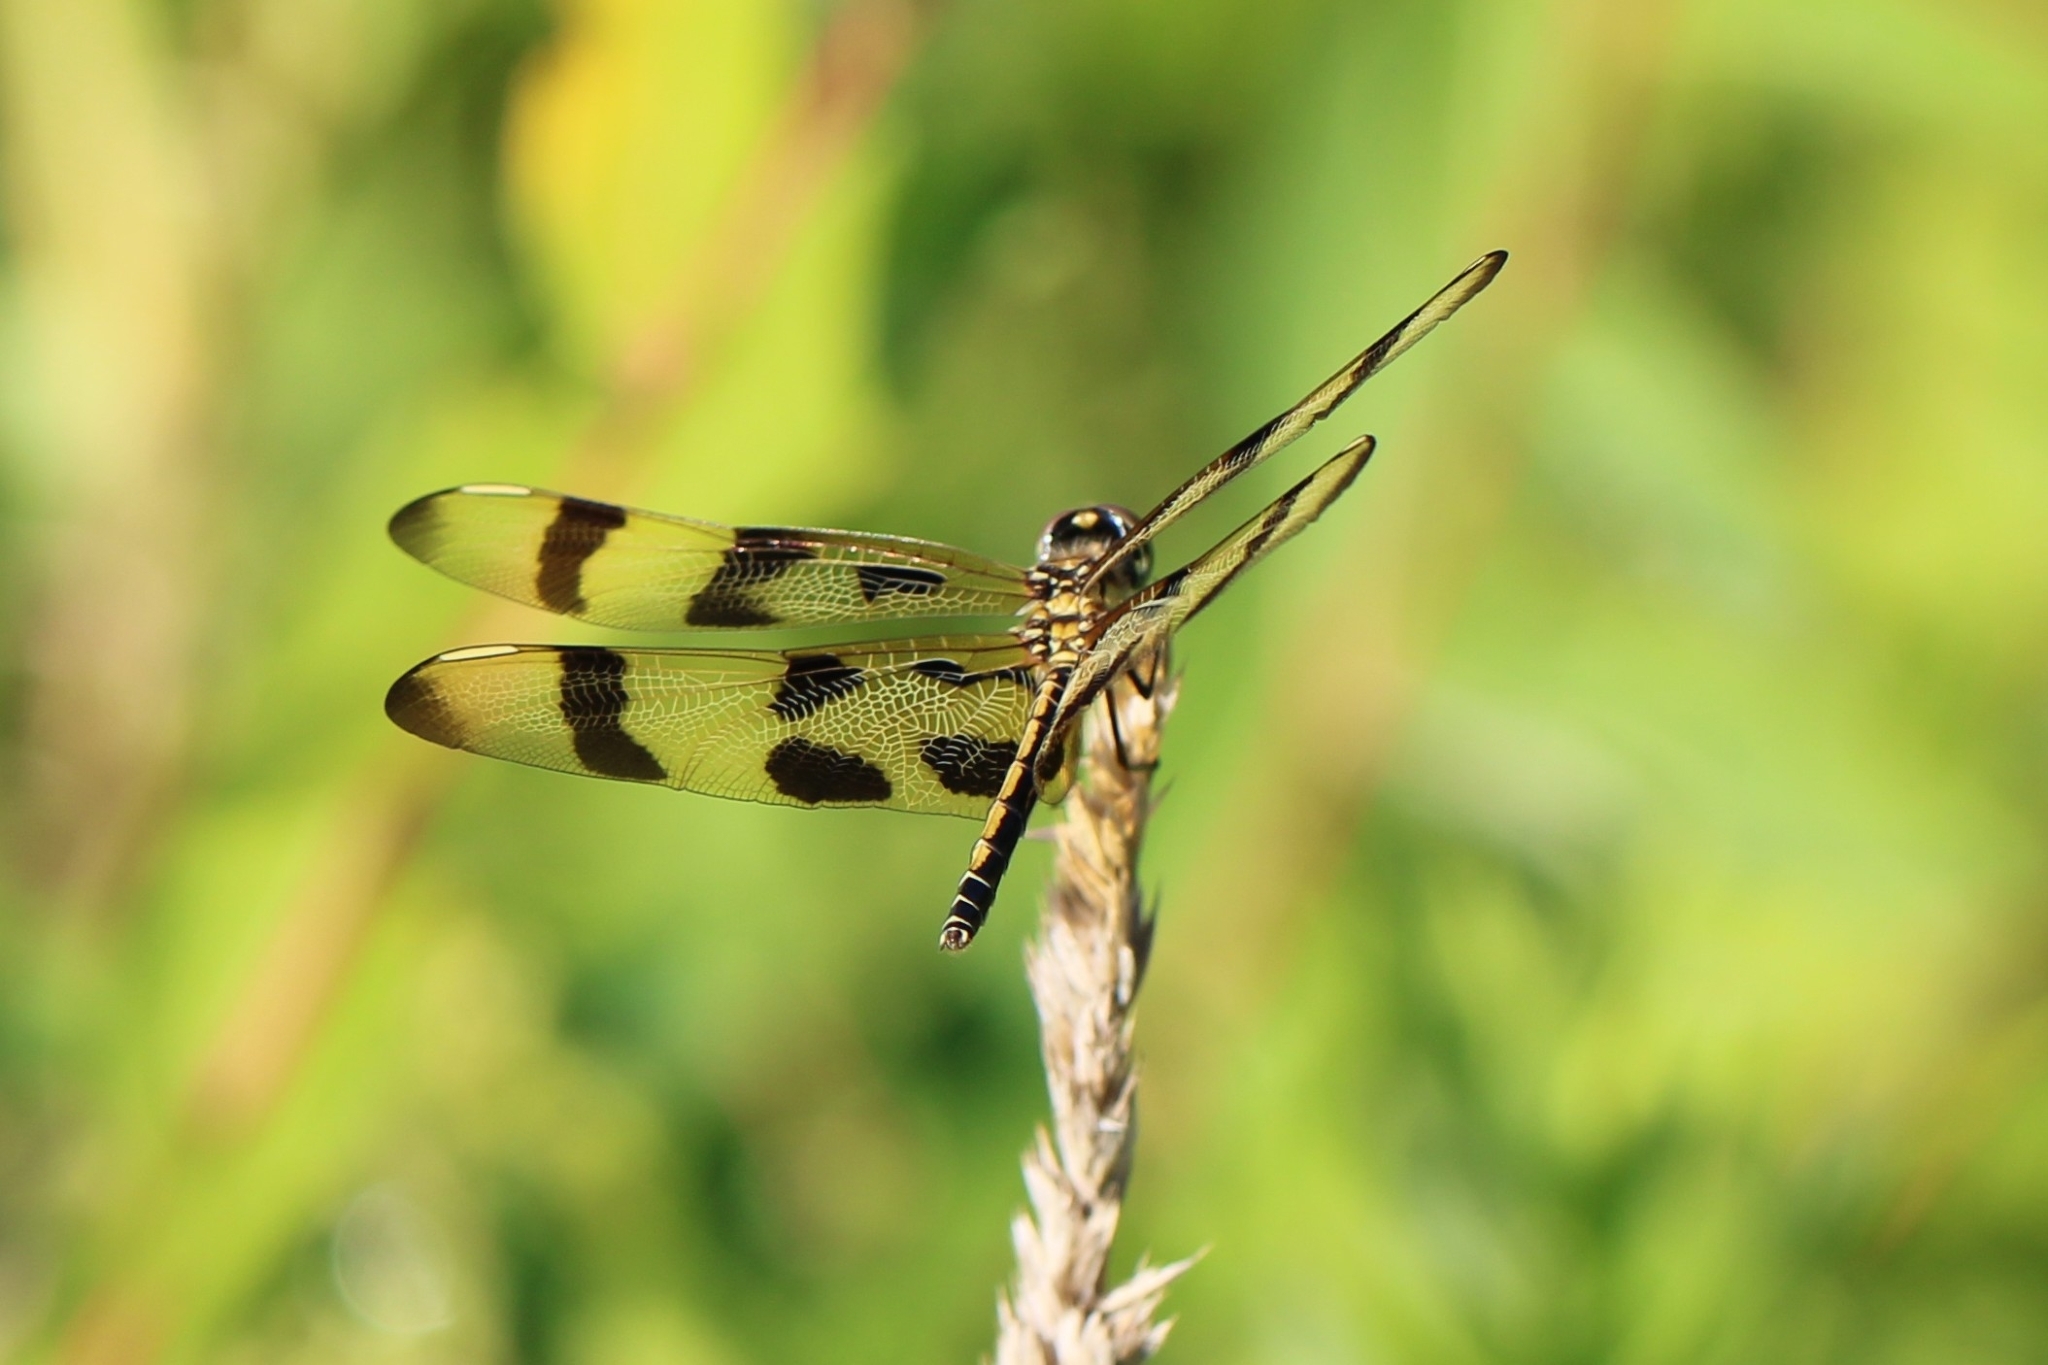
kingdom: Animalia
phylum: Arthropoda
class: Insecta
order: Odonata
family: Libellulidae
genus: Celithemis
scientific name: Celithemis eponina
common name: Halloween pennant
